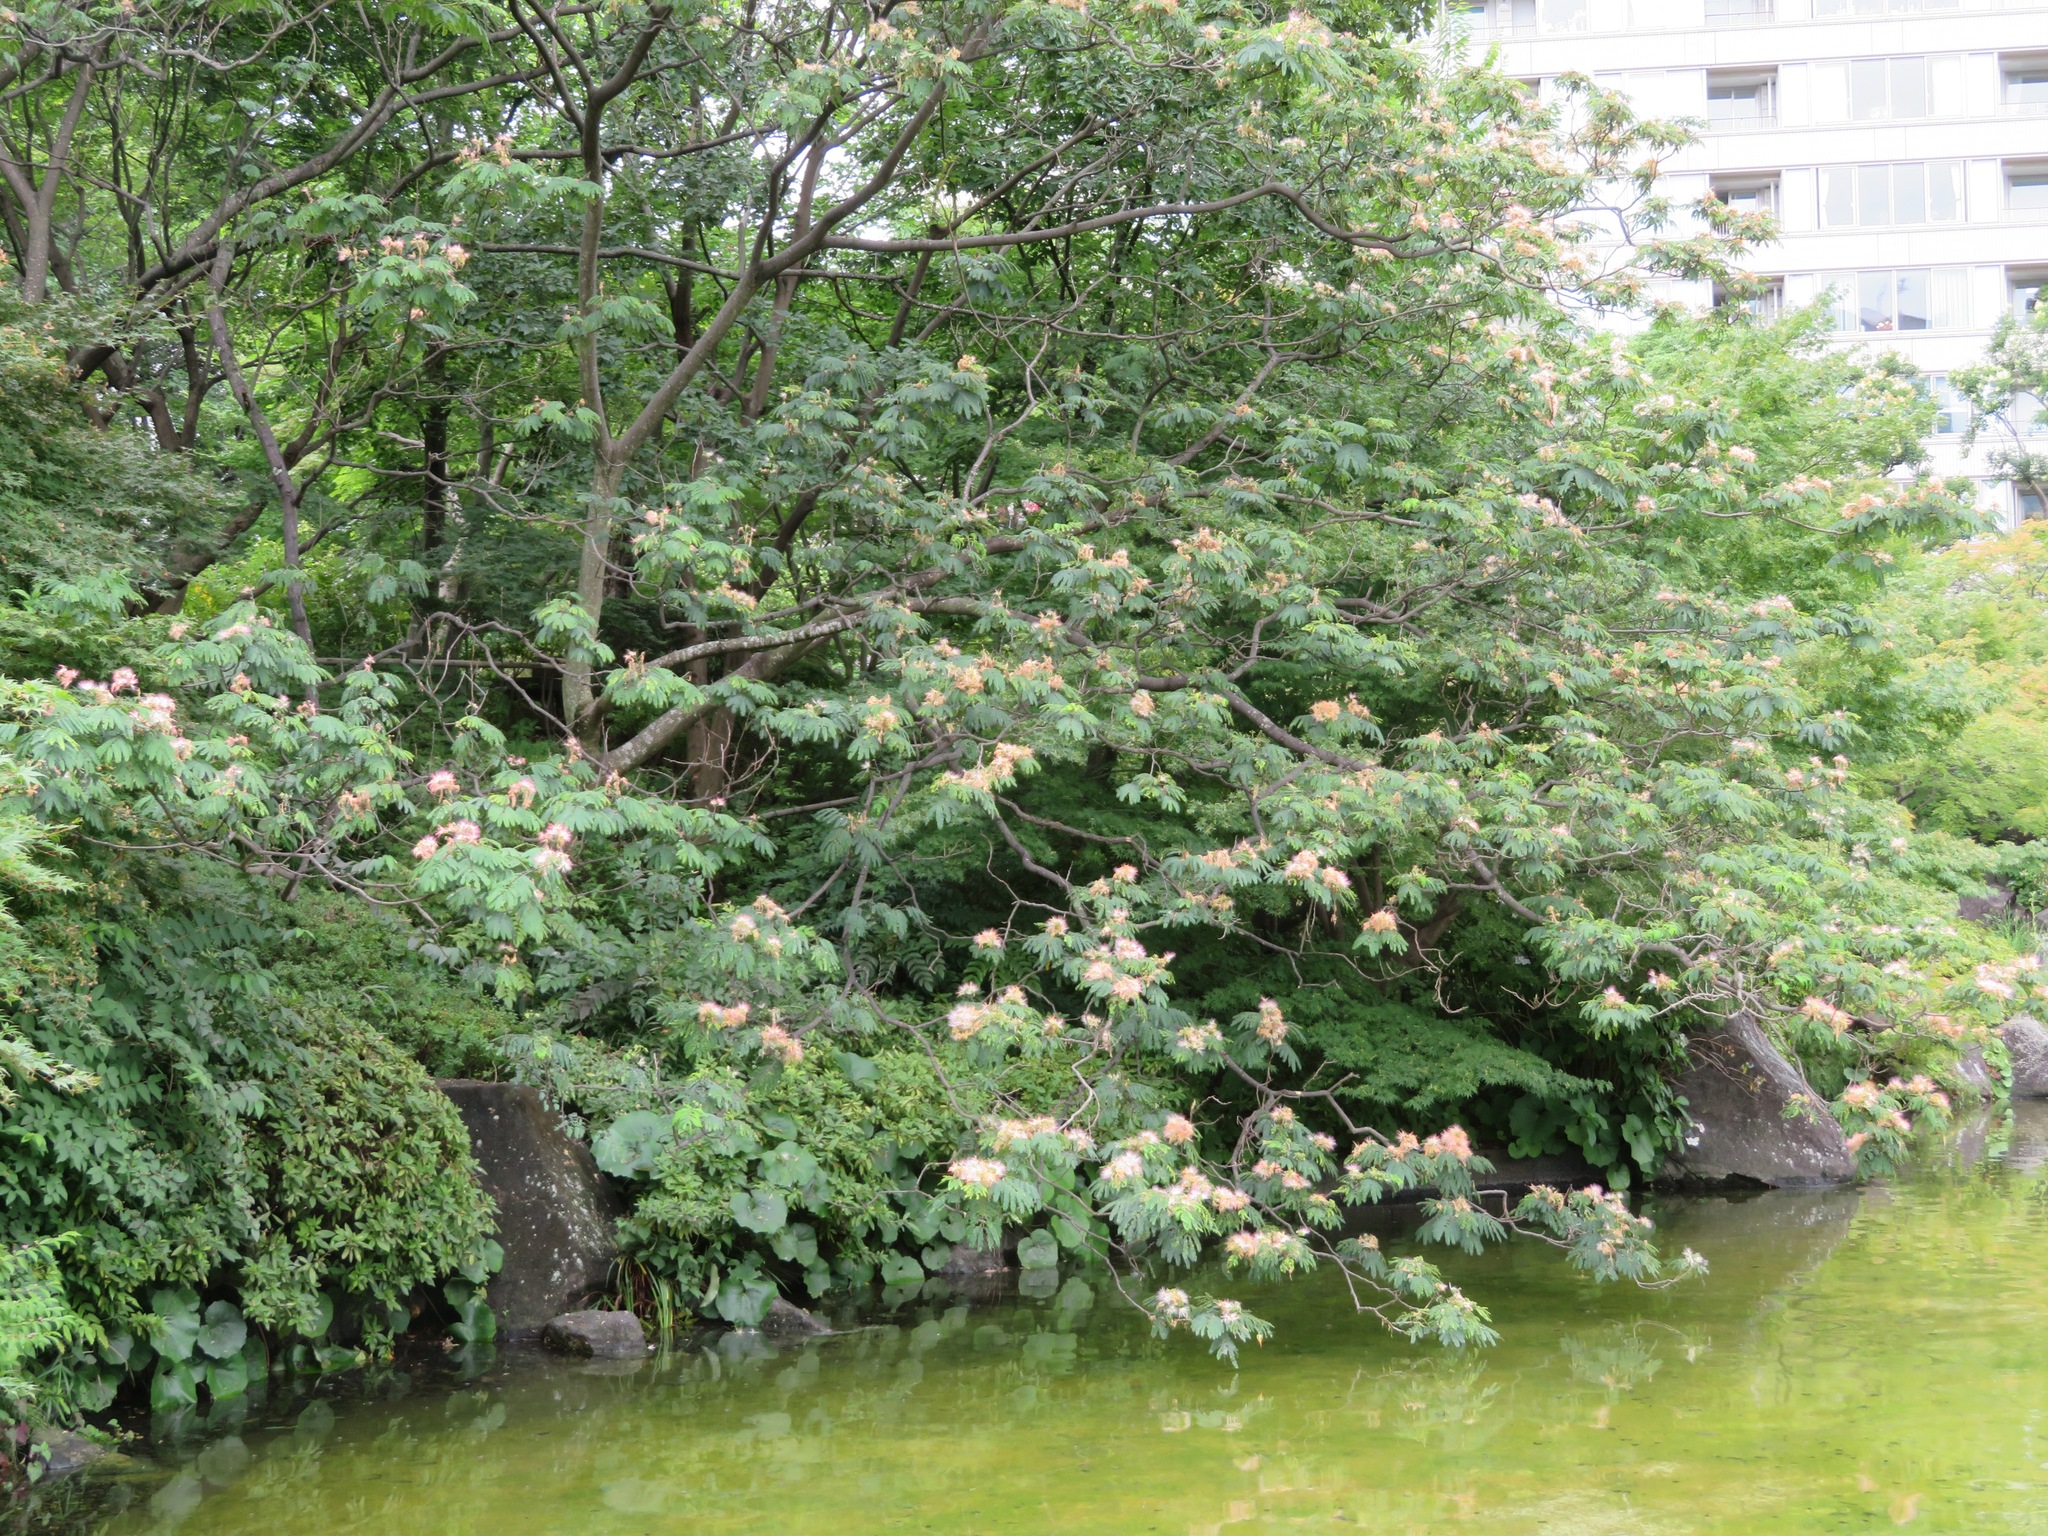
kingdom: Plantae
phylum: Tracheophyta
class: Magnoliopsida
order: Fabales
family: Fabaceae
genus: Albizia
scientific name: Albizia julibrissin
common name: Silktree
